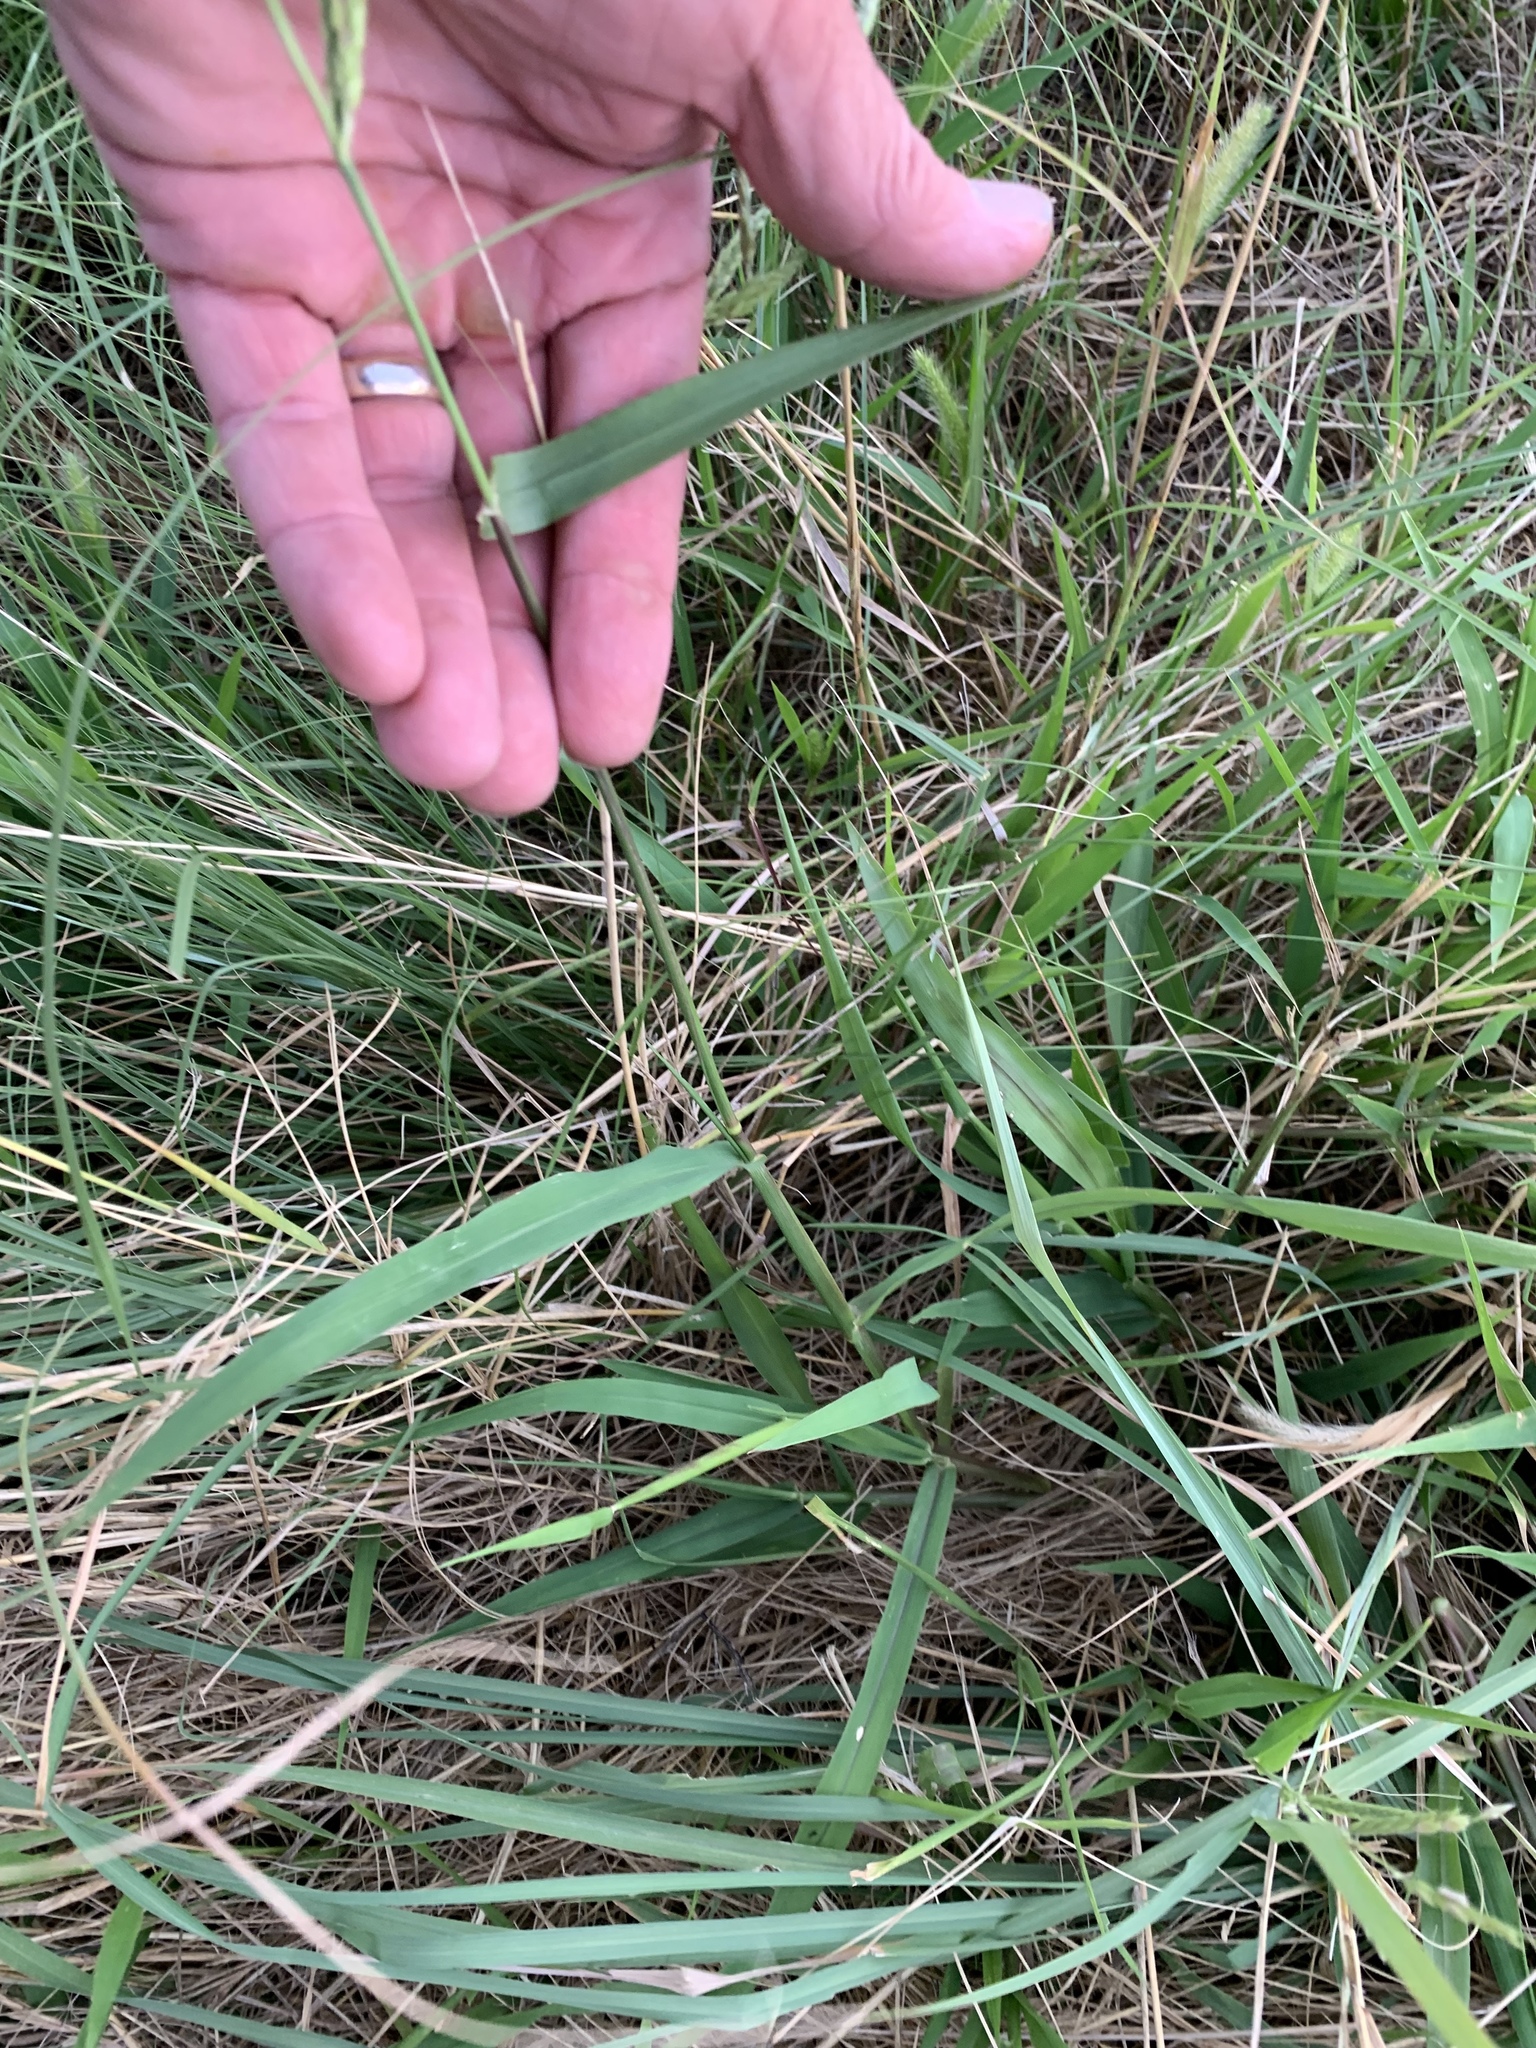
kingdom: Plantae
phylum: Tracheophyta
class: Liliopsida
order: Poales
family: Poaceae
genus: Eriochloa
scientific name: Eriochloa contracta
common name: Prairie cup grass
